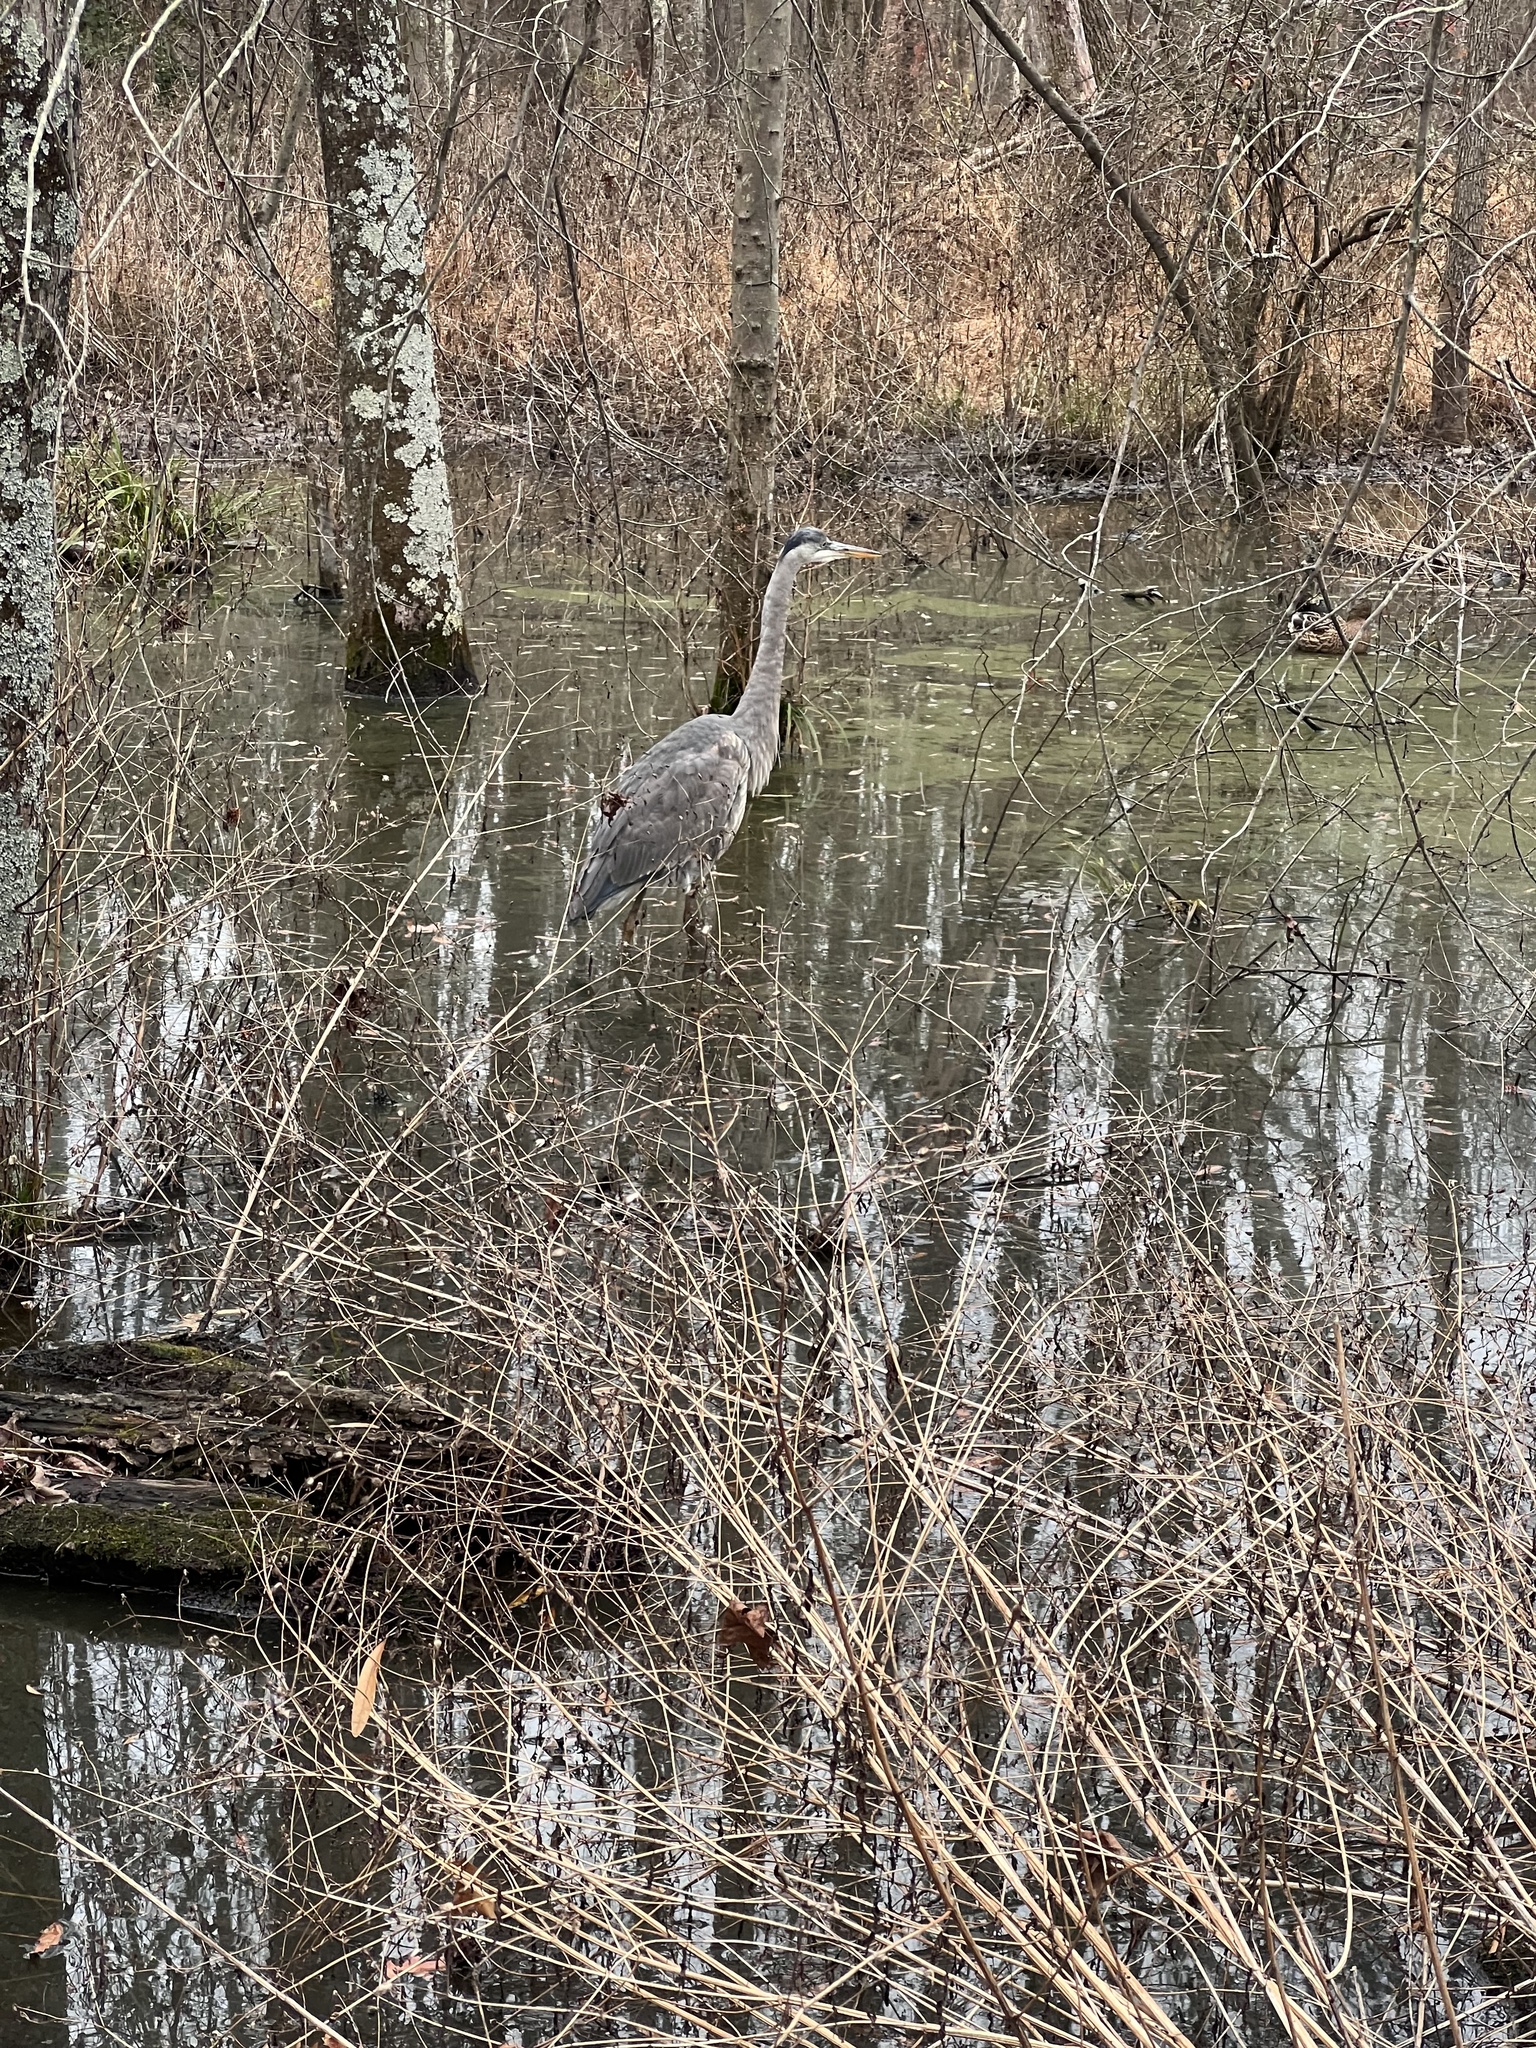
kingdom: Animalia
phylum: Chordata
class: Aves
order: Pelecaniformes
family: Ardeidae
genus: Ardea
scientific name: Ardea herodias
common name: Great blue heron
